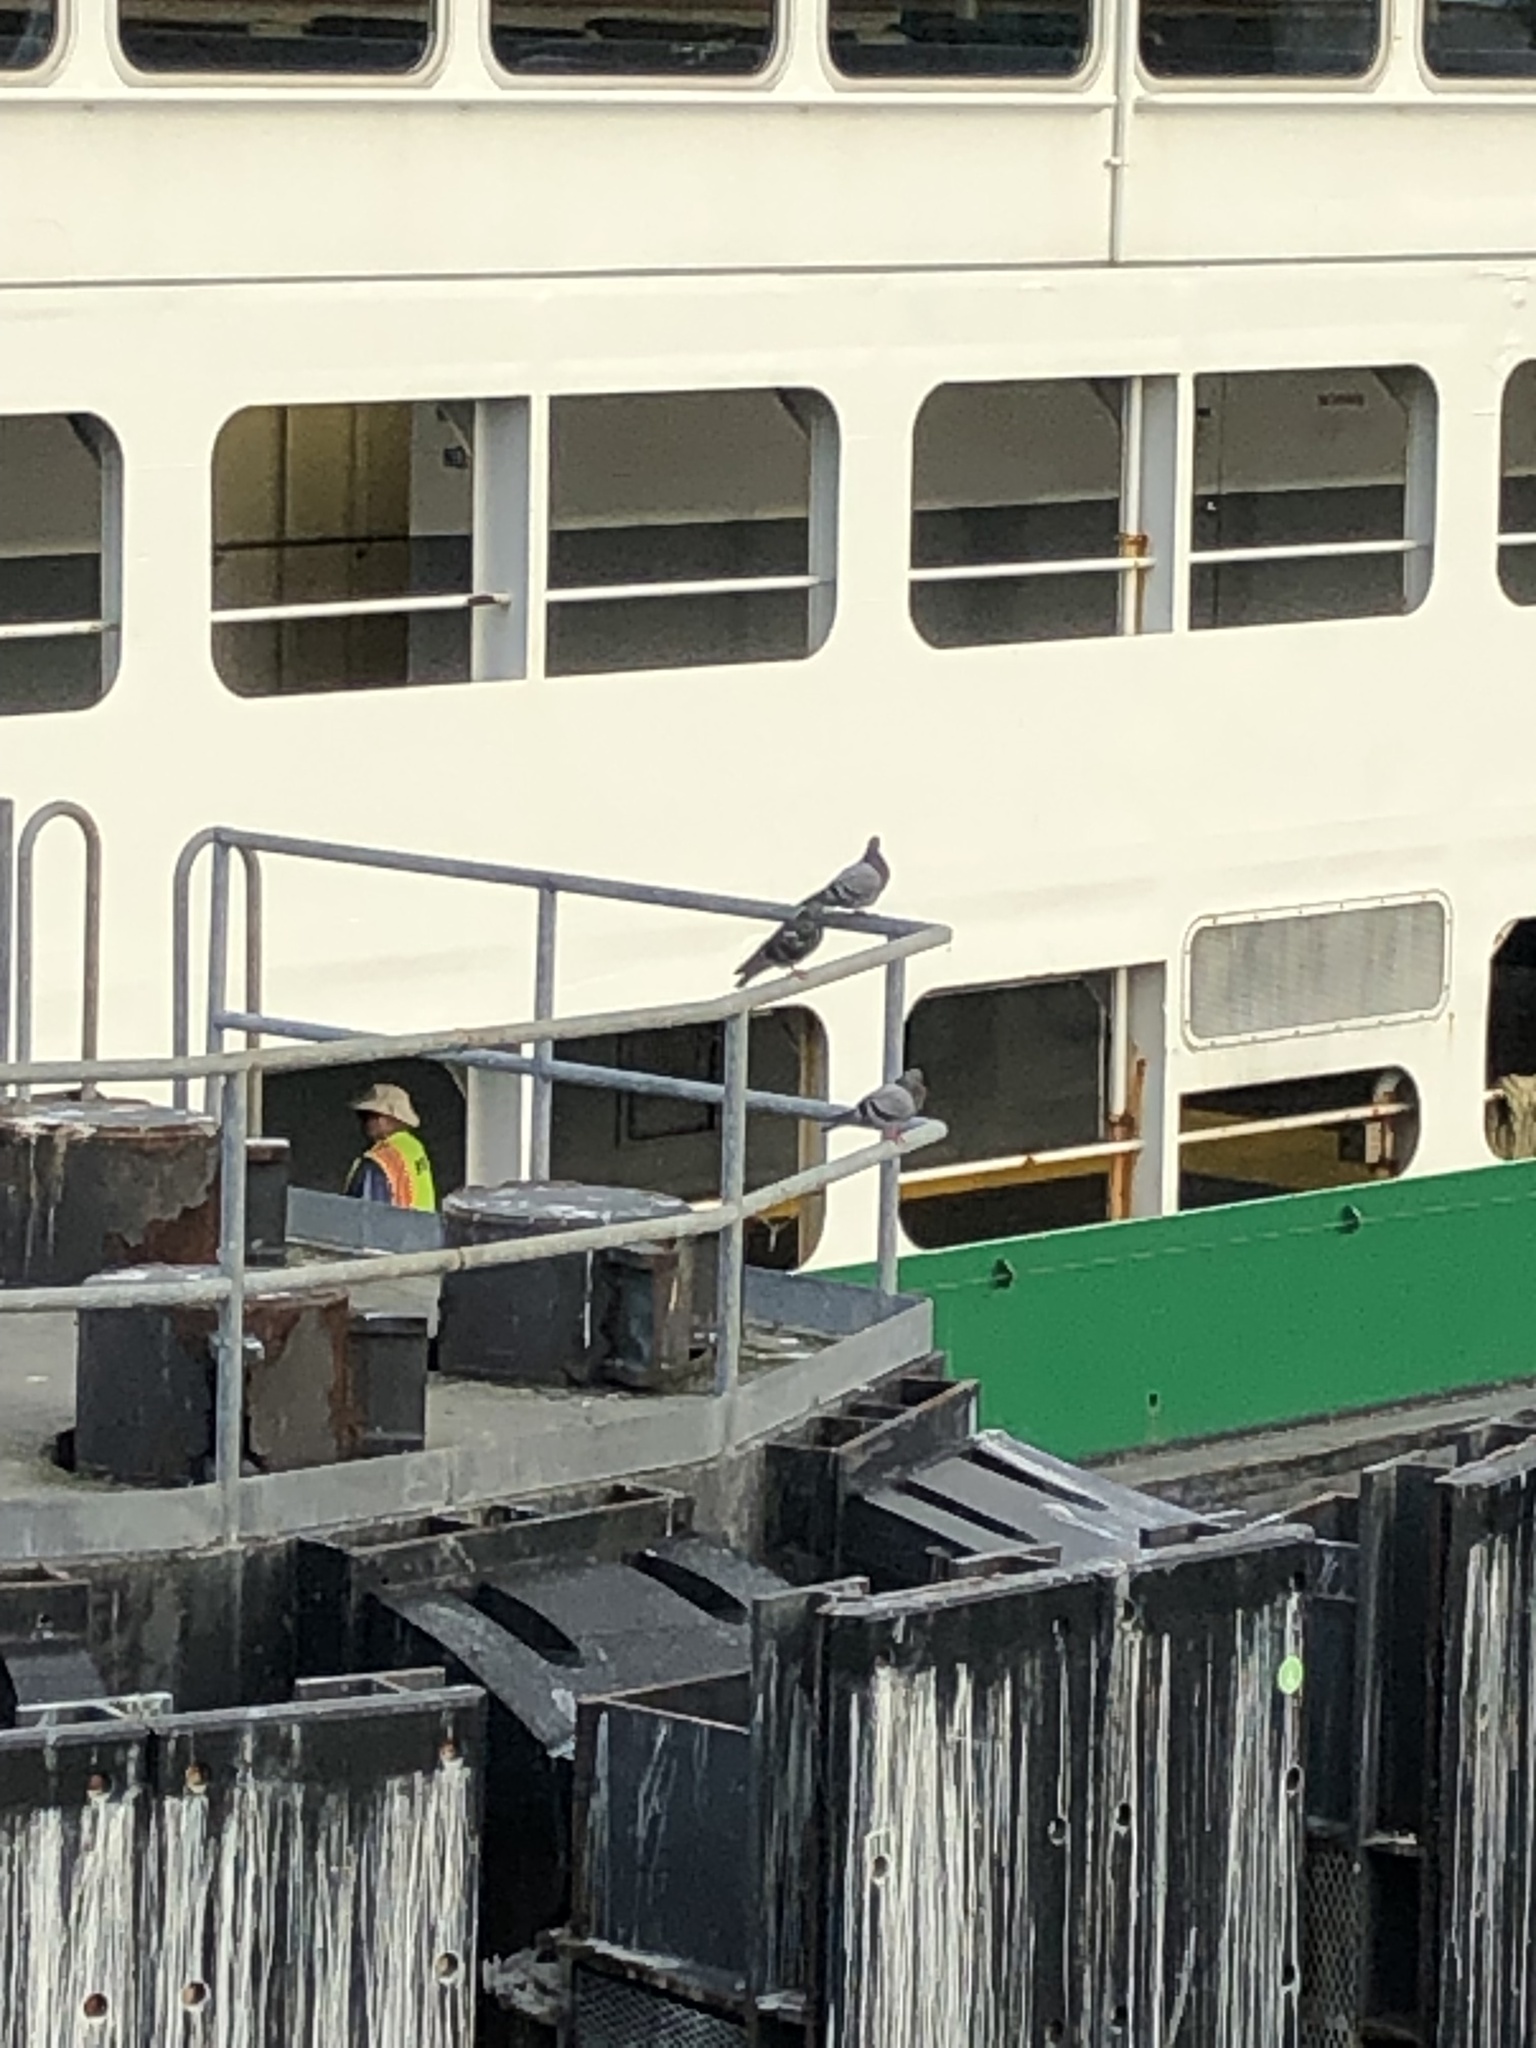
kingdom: Animalia
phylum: Chordata
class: Aves
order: Columbiformes
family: Columbidae
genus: Columba
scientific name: Columba livia
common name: Rock pigeon
